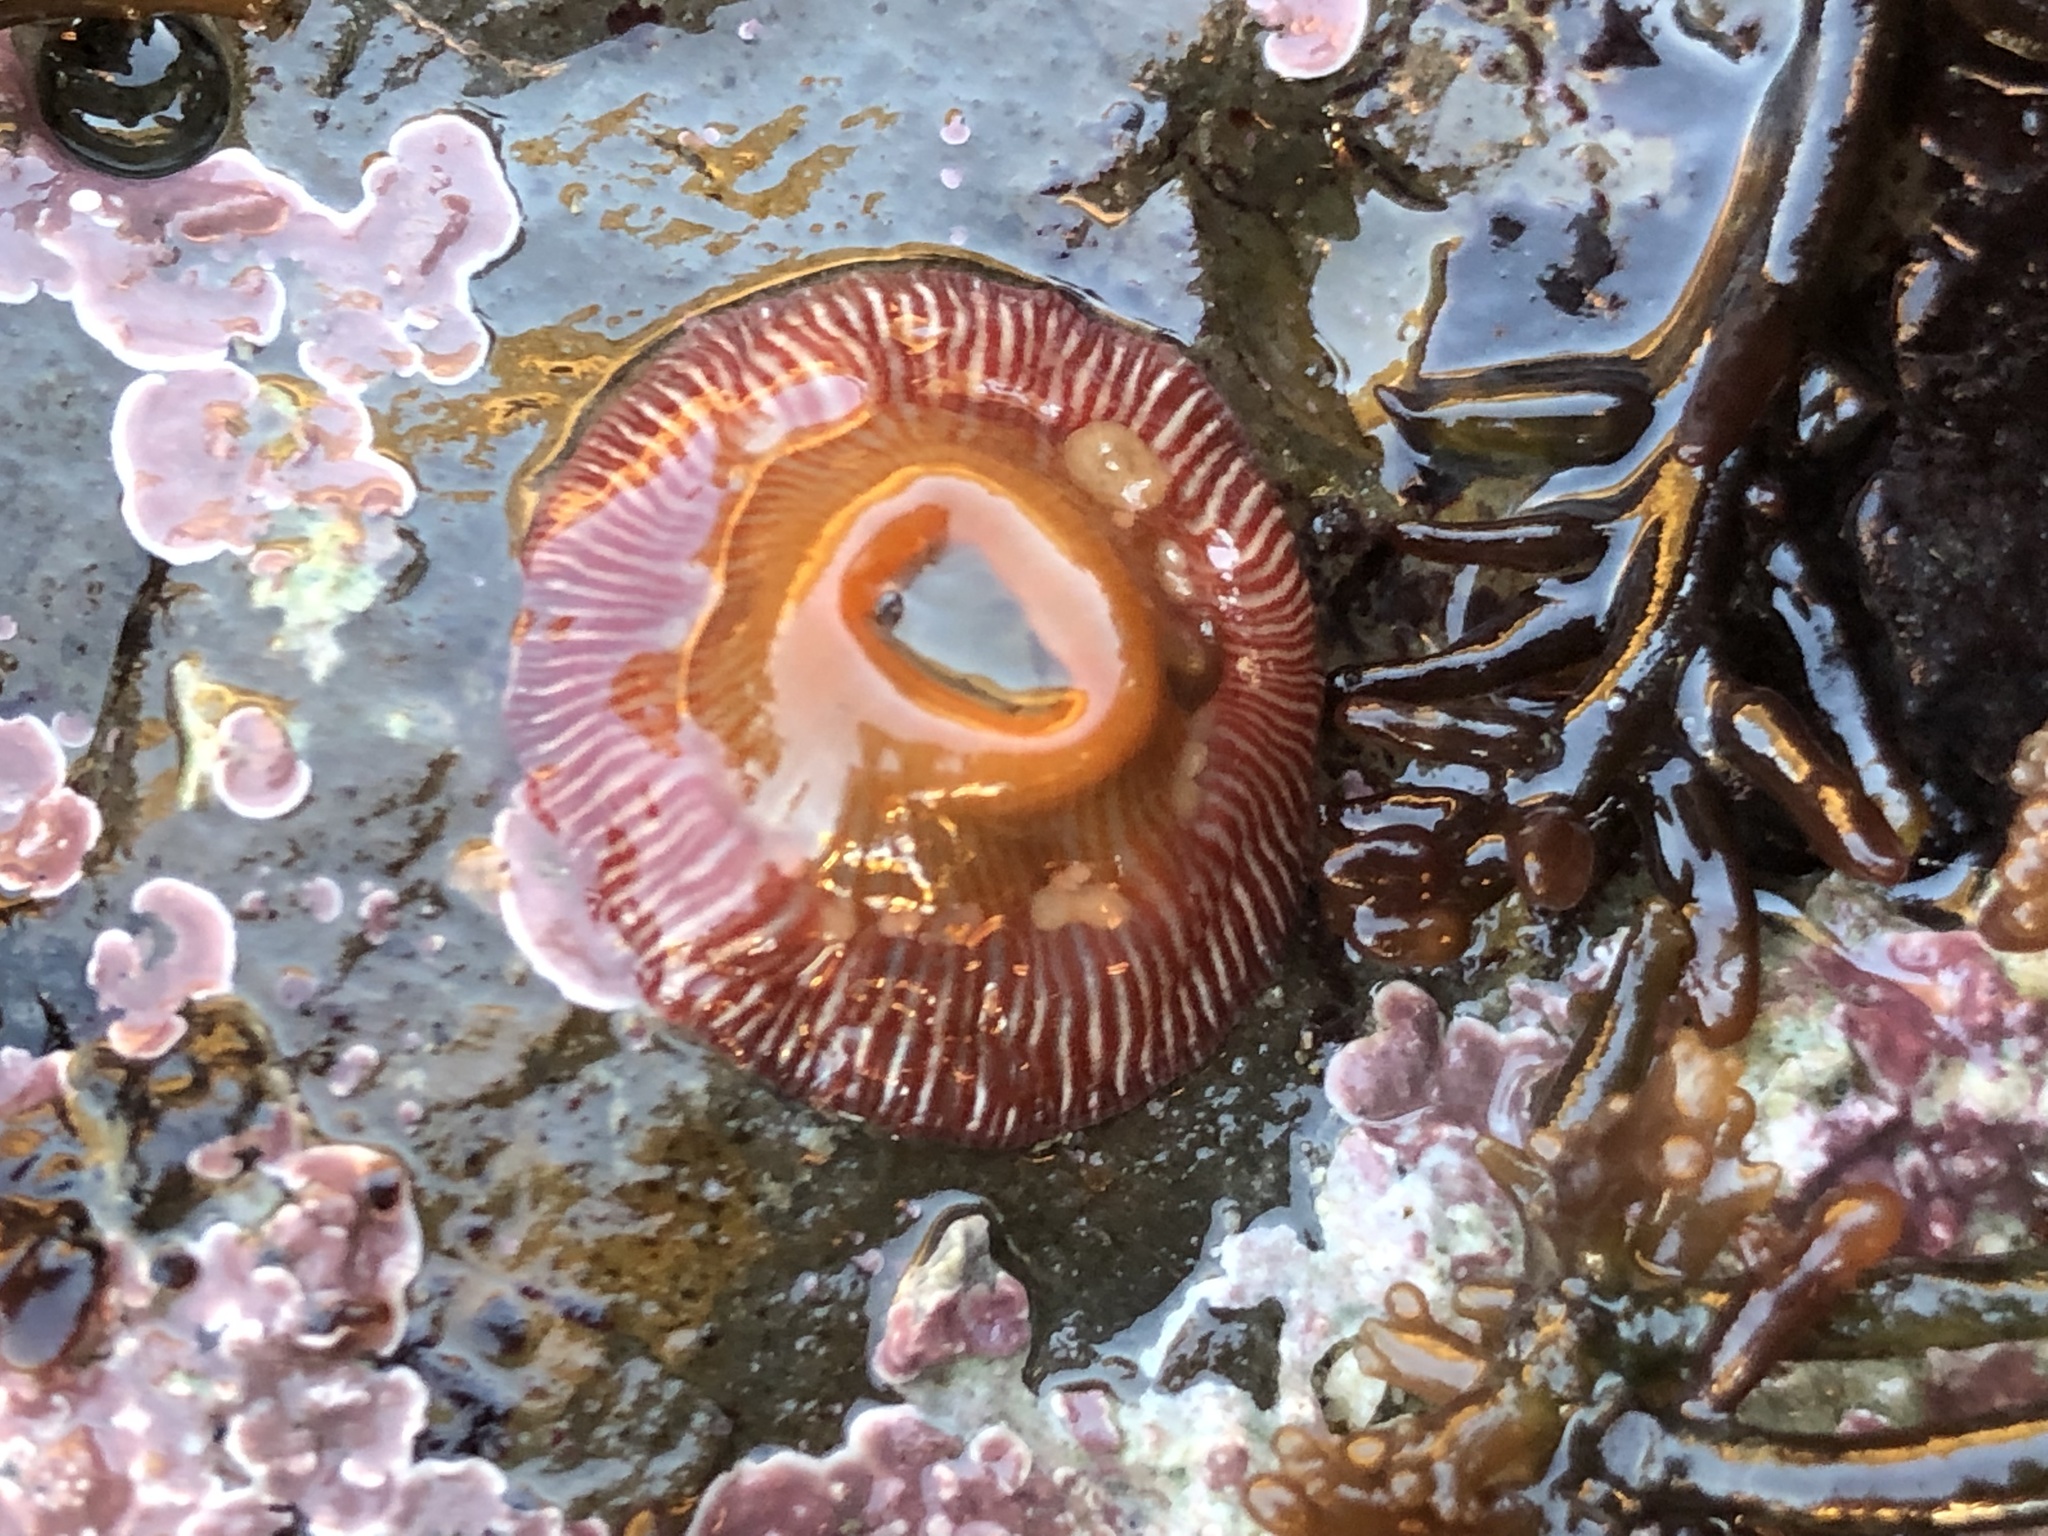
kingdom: Animalia
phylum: Cnidaria
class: Anthozoa
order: Actiniaria
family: Actiniidae
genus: Epiactis
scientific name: Epiactis prolifera
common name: Brooding anemone
